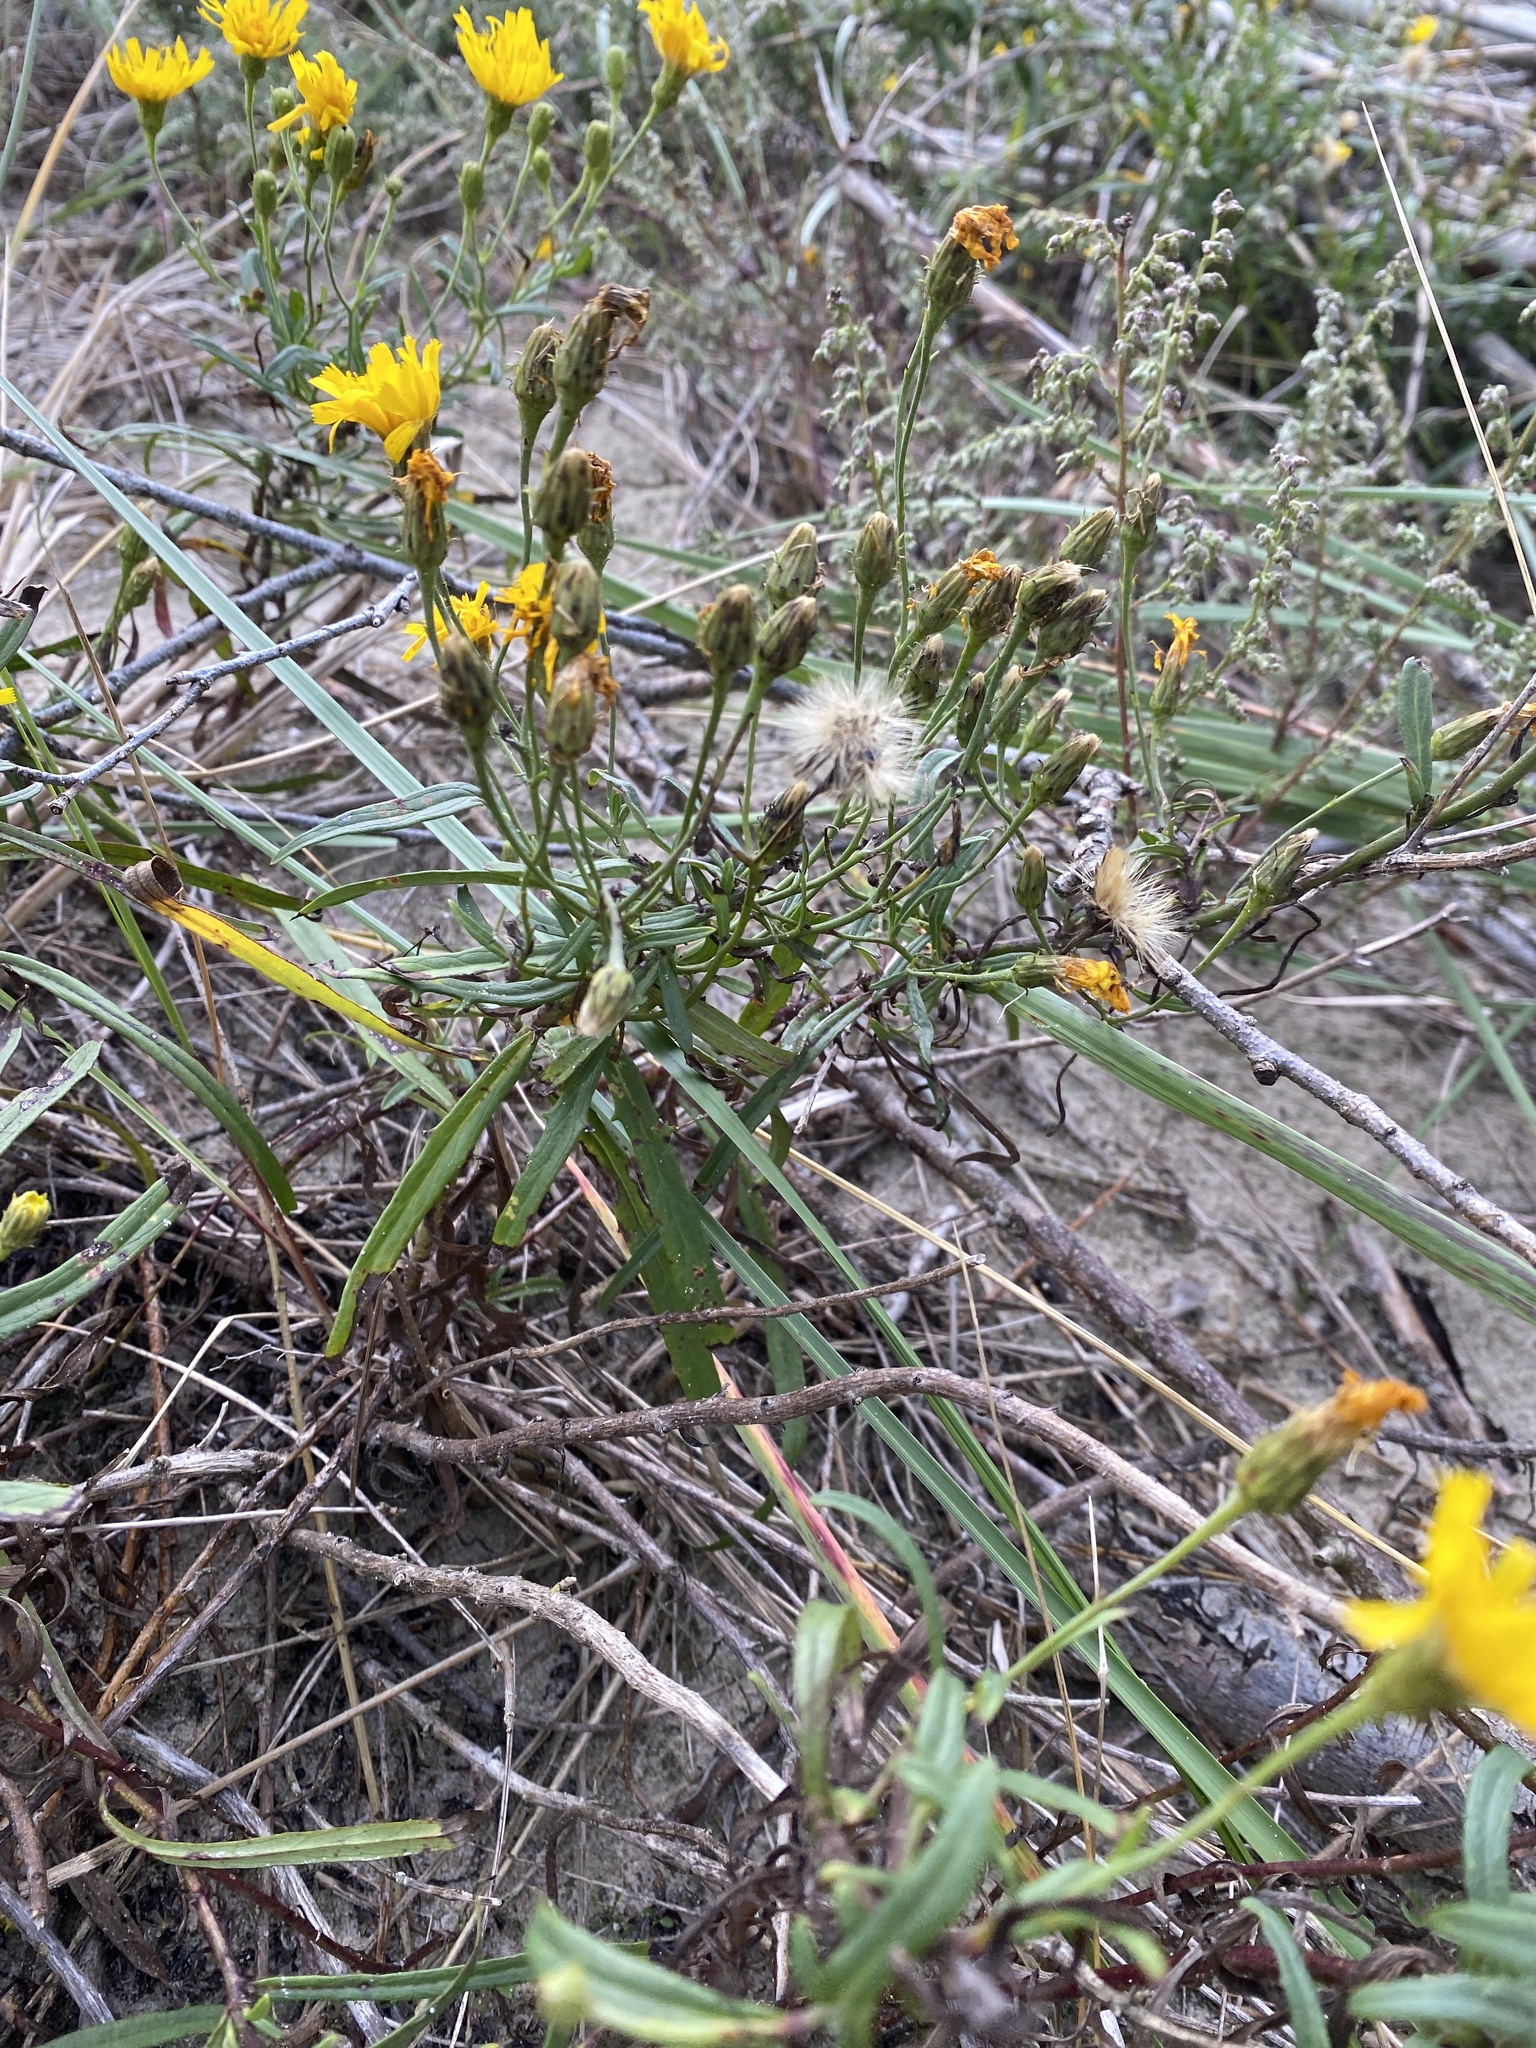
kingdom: Plantae
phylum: Tracheophyta
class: Magnoliopsida
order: Asterales
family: Asteraceae
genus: Hieracium
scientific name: Hieracium umbellatum
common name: Northern hawkweed
